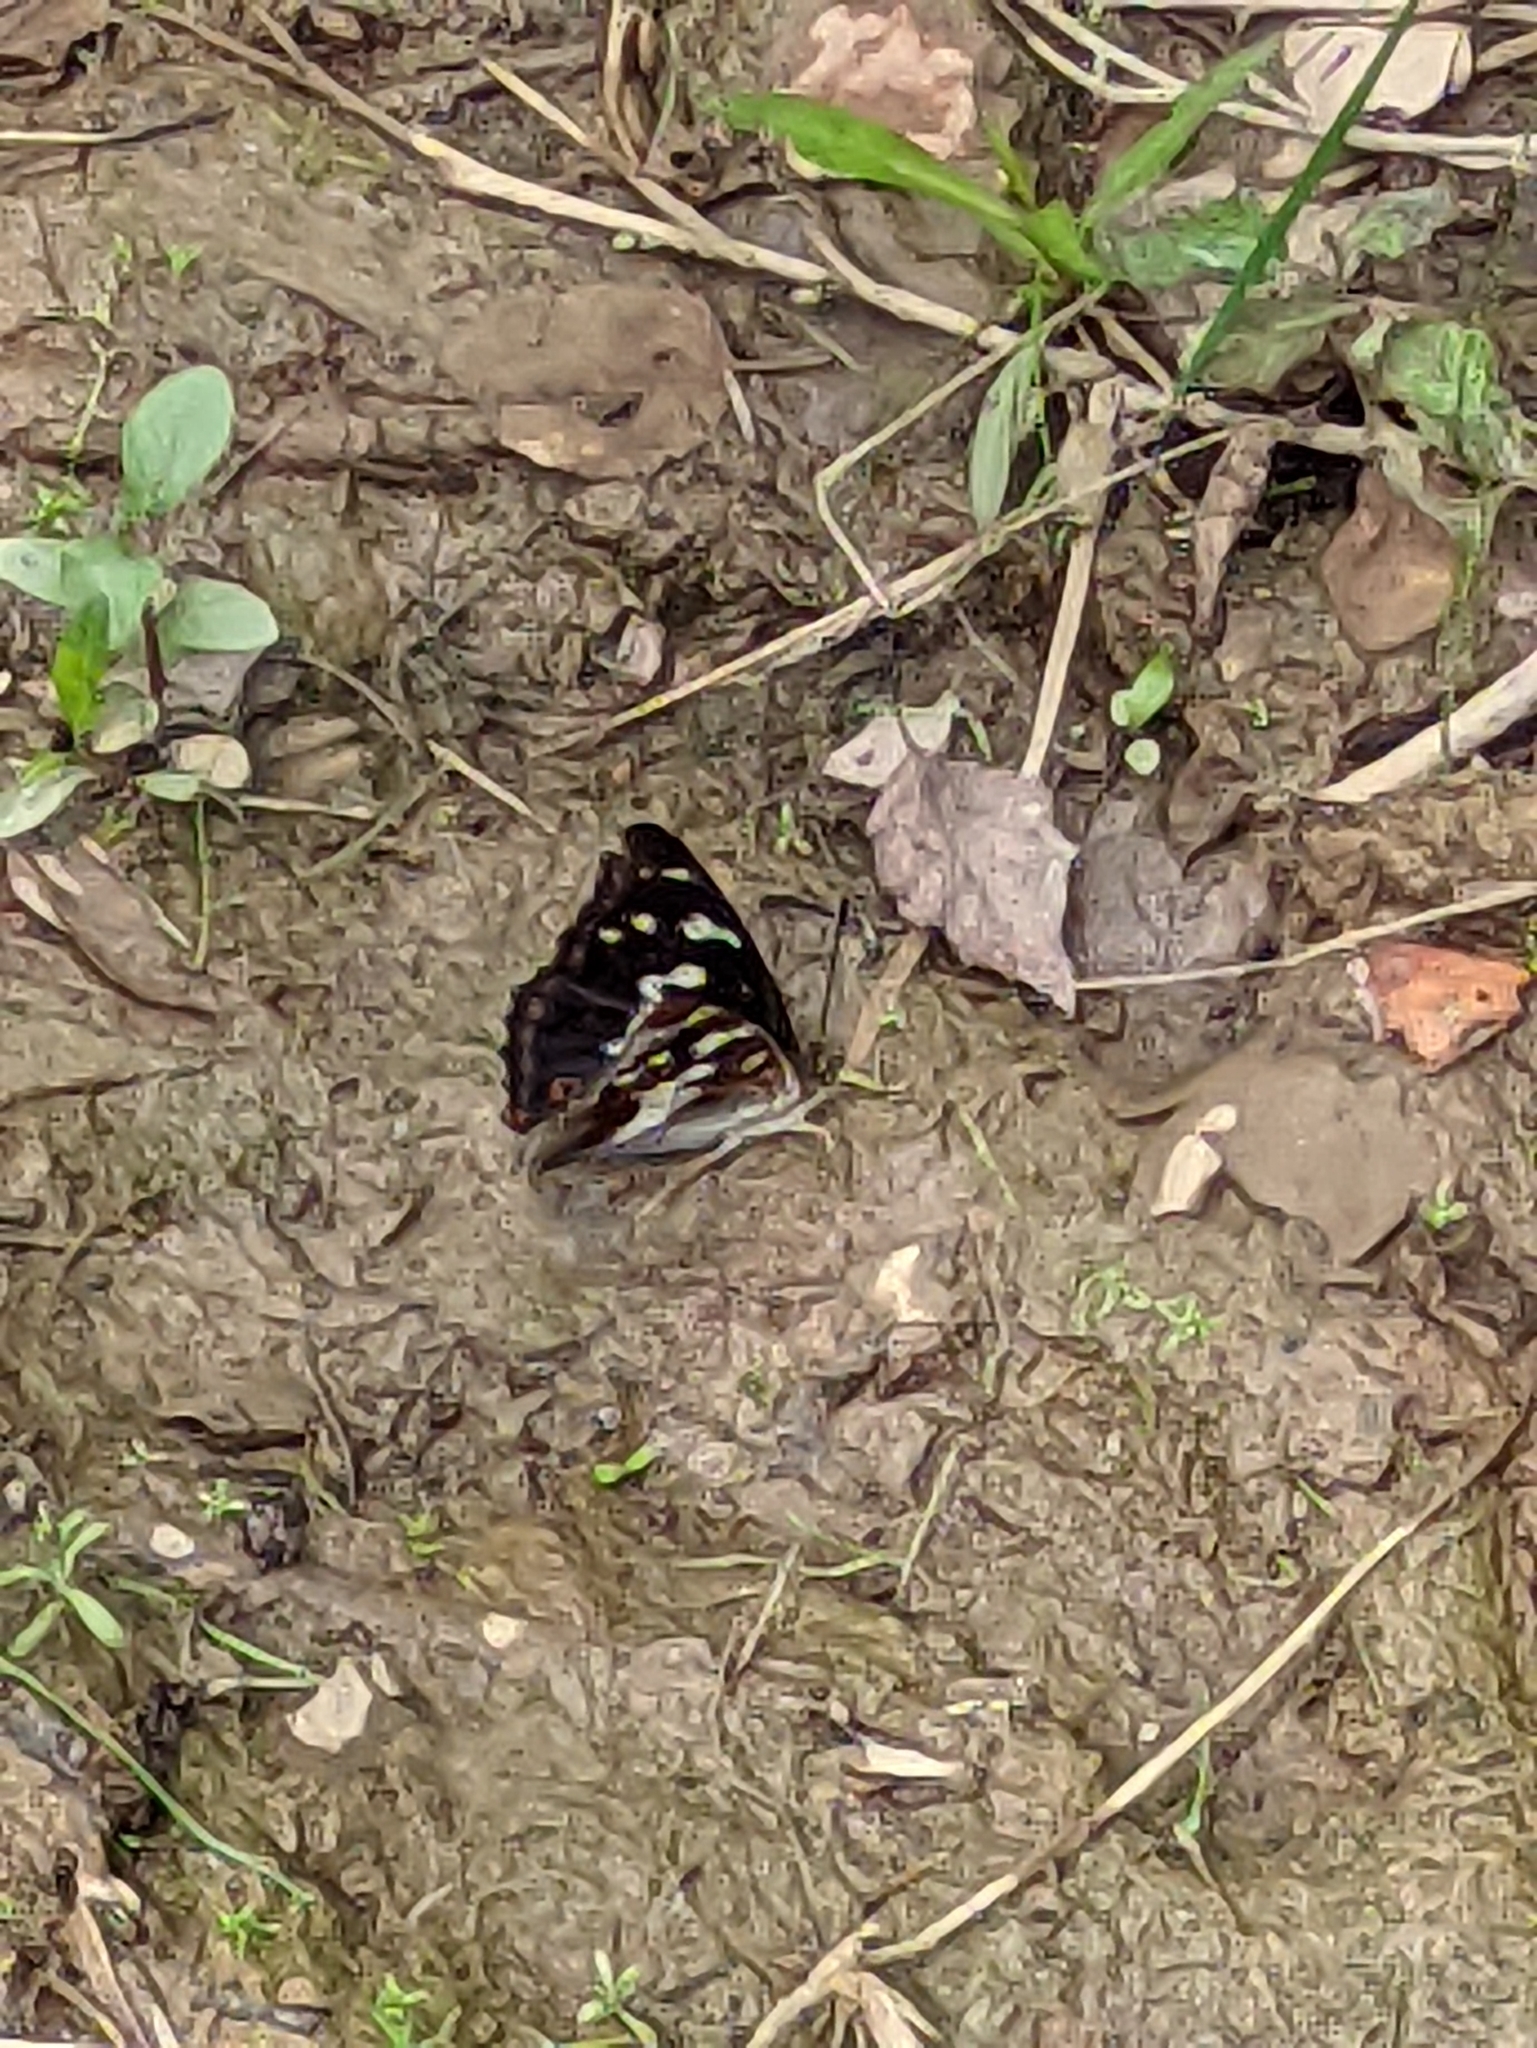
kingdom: Animalia
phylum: Arthropoda
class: Insecta
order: Lepidoptera
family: Nymphalidae
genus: Apatura
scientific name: Apatura iris
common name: Purple emperor
